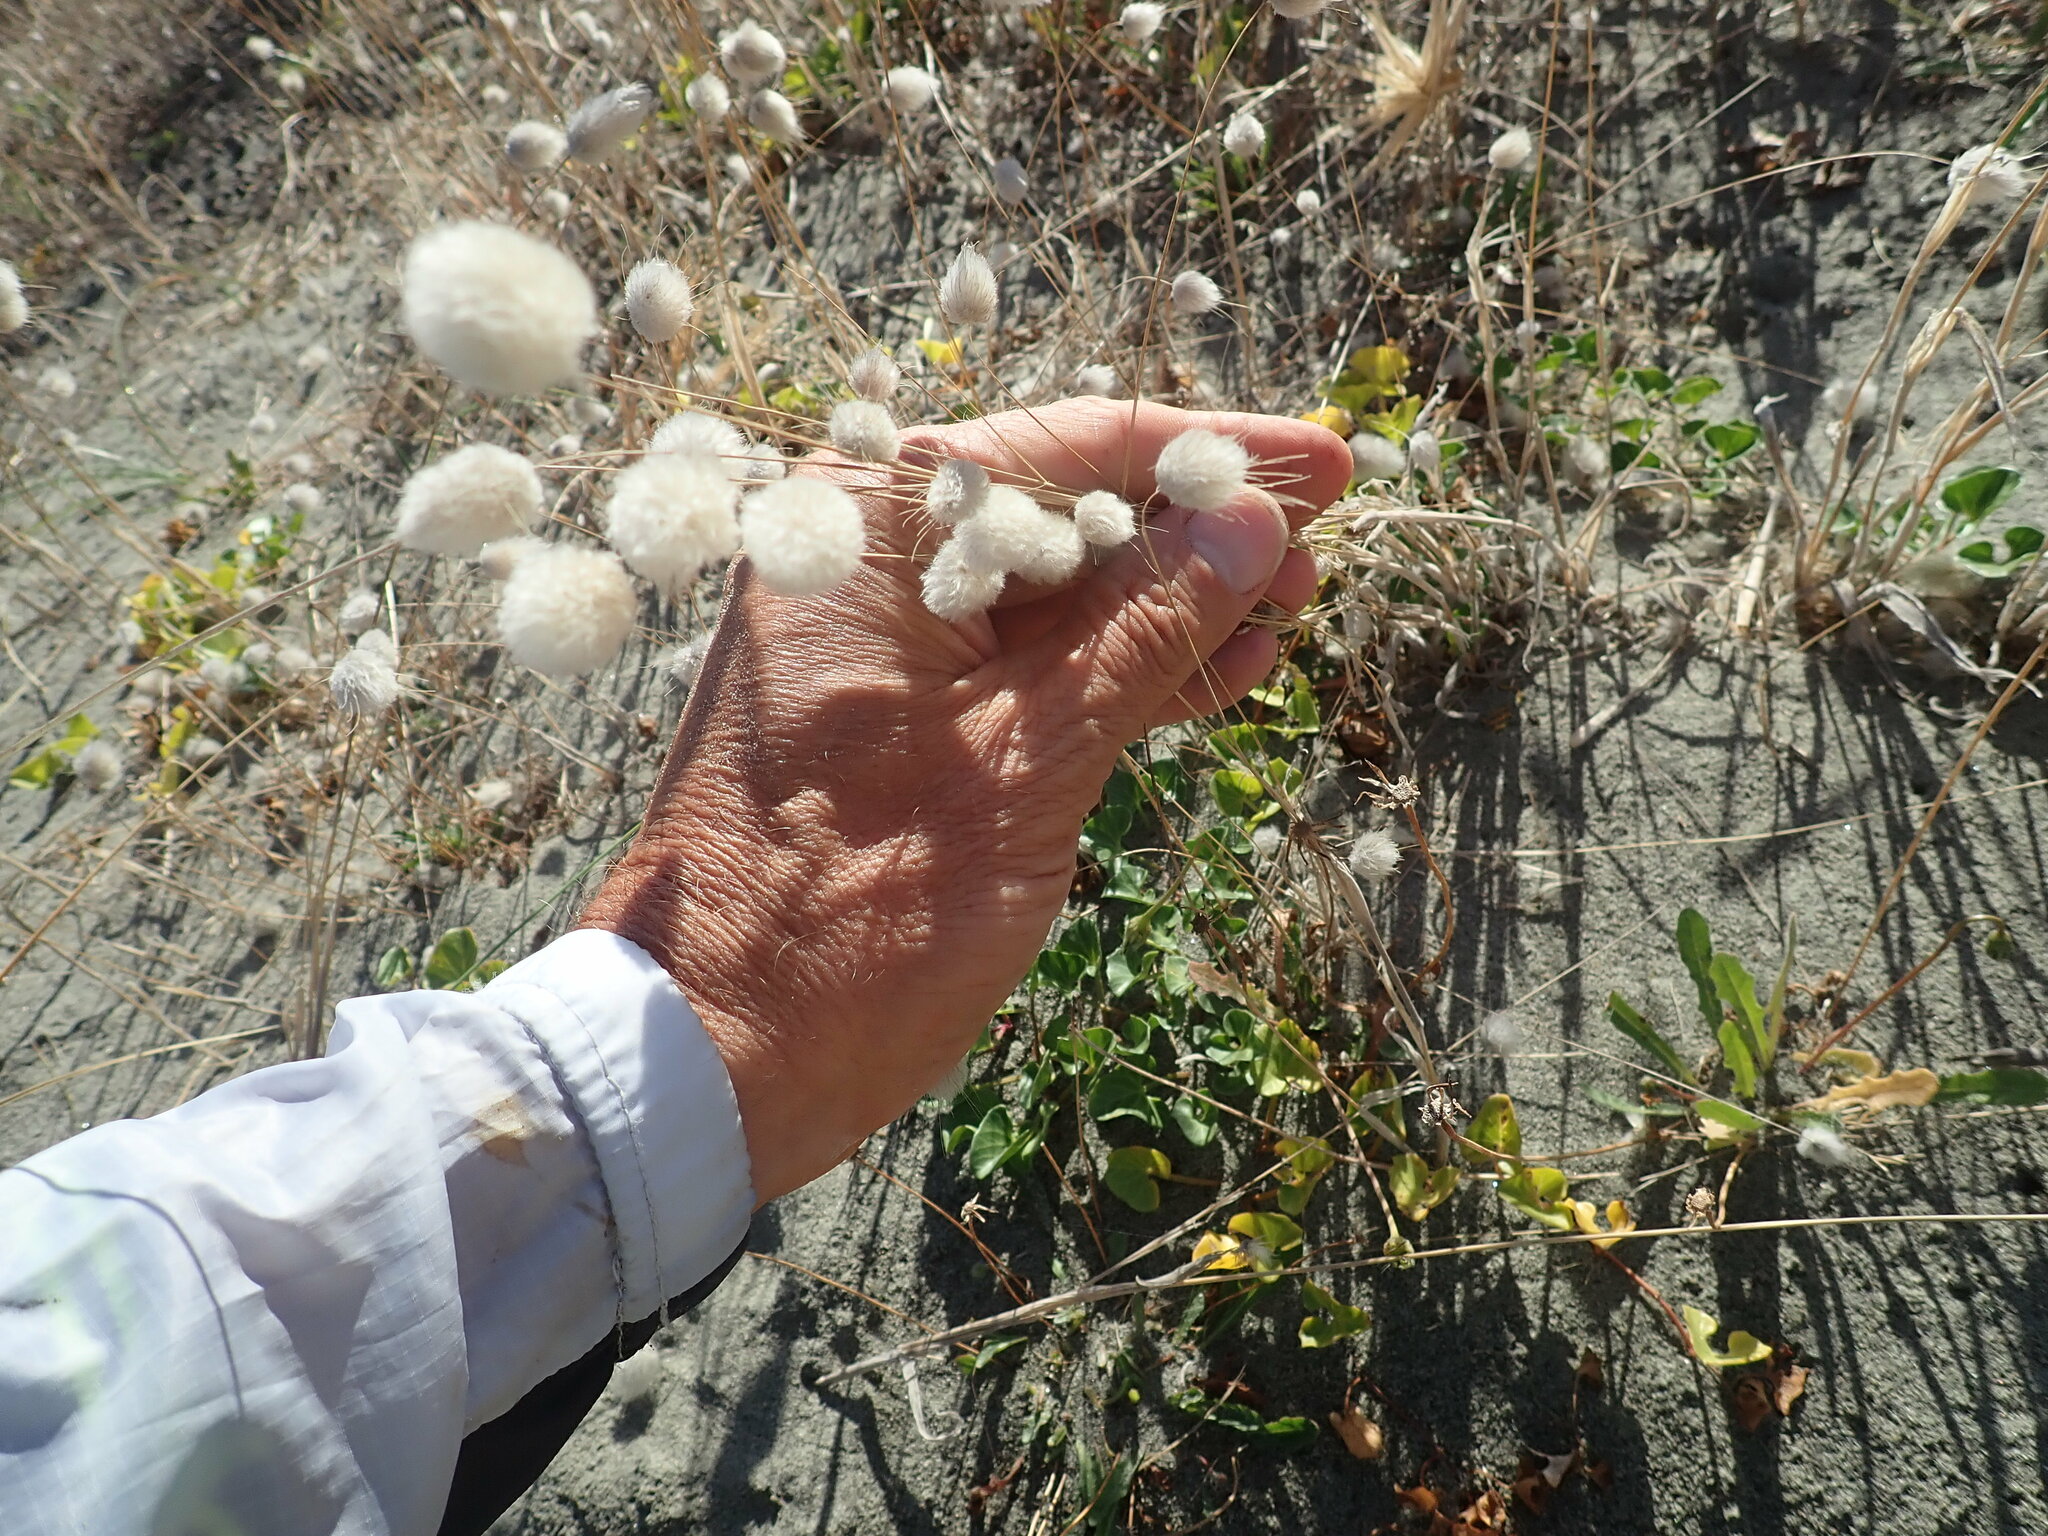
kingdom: Plantae
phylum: Tracheophyta
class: Liliopsida
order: Poales
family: Poaceae
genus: Lagurus
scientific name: Lagurus ovatus
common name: Hare's-tail
